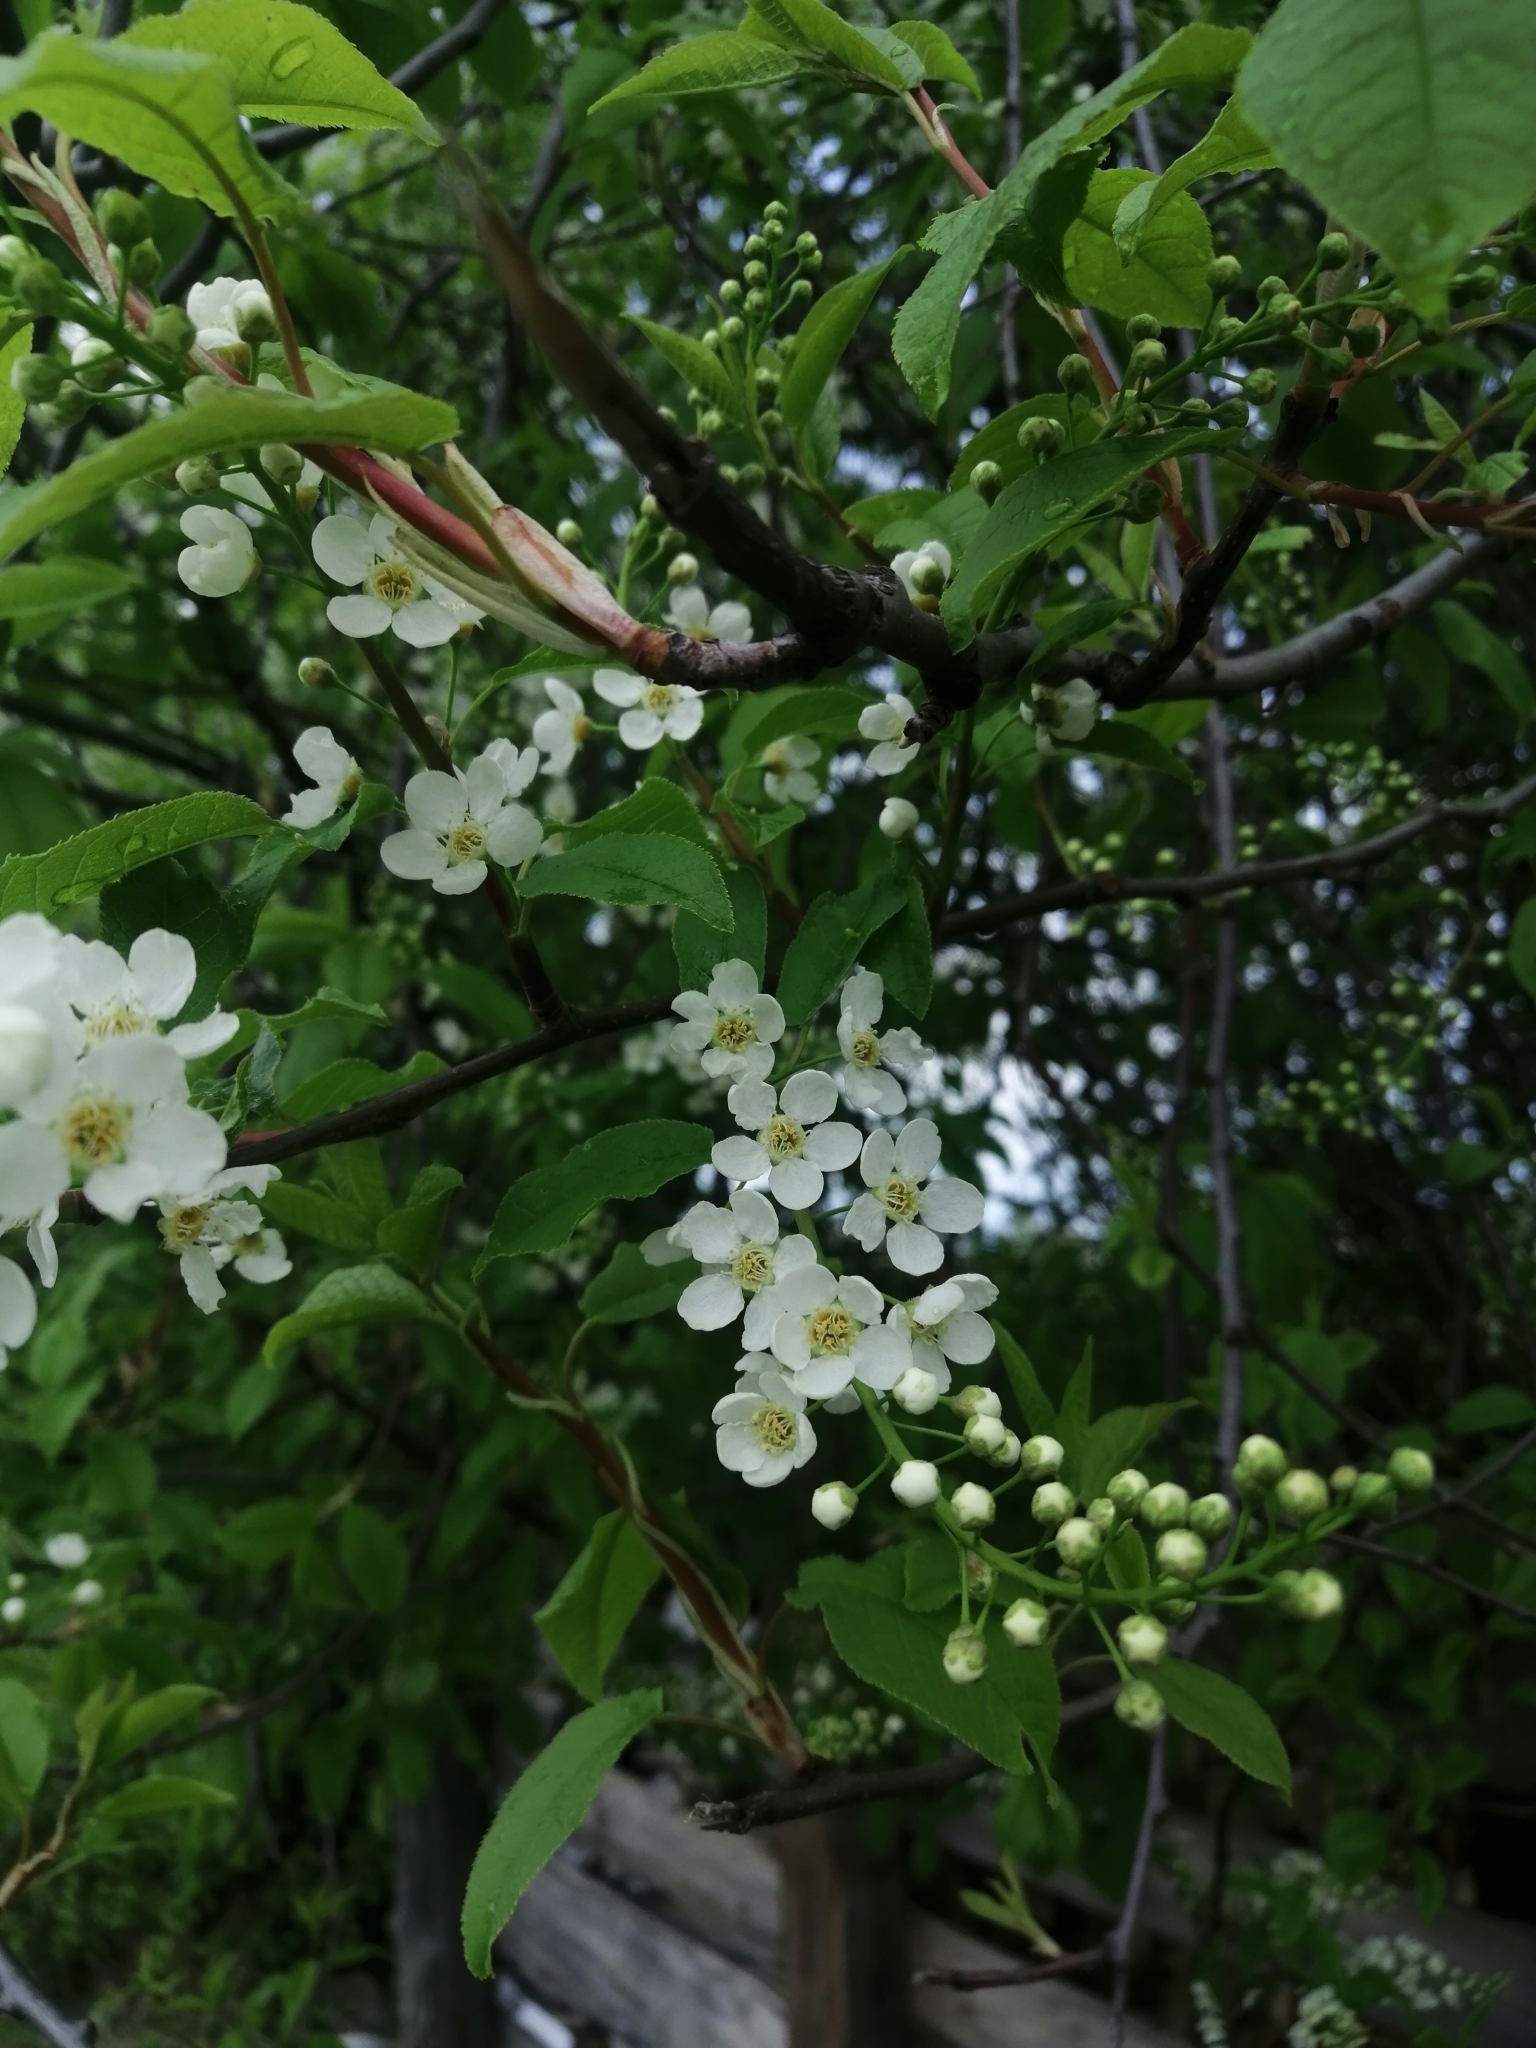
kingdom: Plantae
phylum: Tracheophyta
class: Magnoliopsida
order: Rosales
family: Rosaceae
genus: Prunus
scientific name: Prunus padus
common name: Bird cherry
